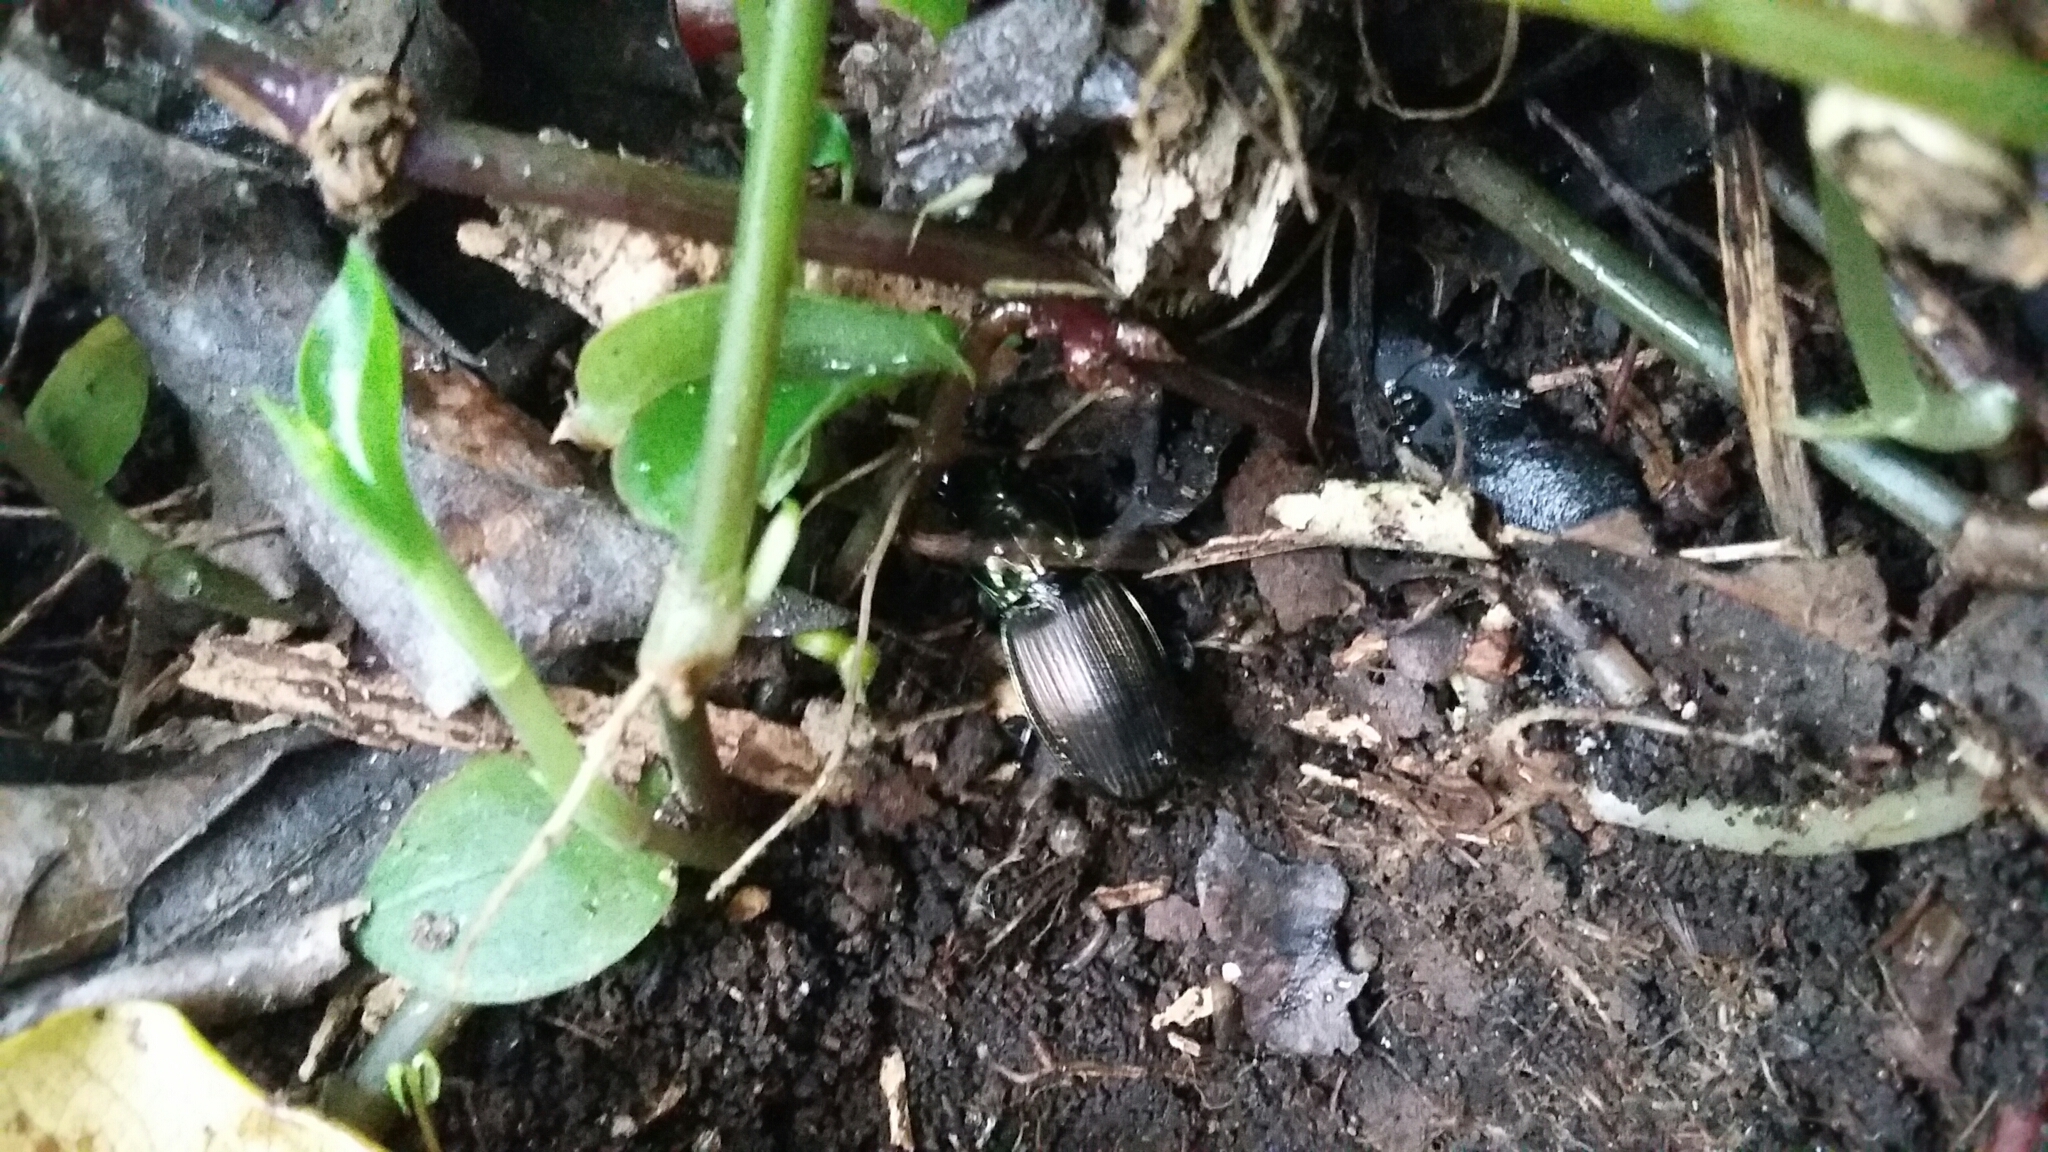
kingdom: Animalia
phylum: Arthropoda
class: Insecta
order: Coleoptera
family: Carabidae
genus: Megadromus
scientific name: Megadromus capito
